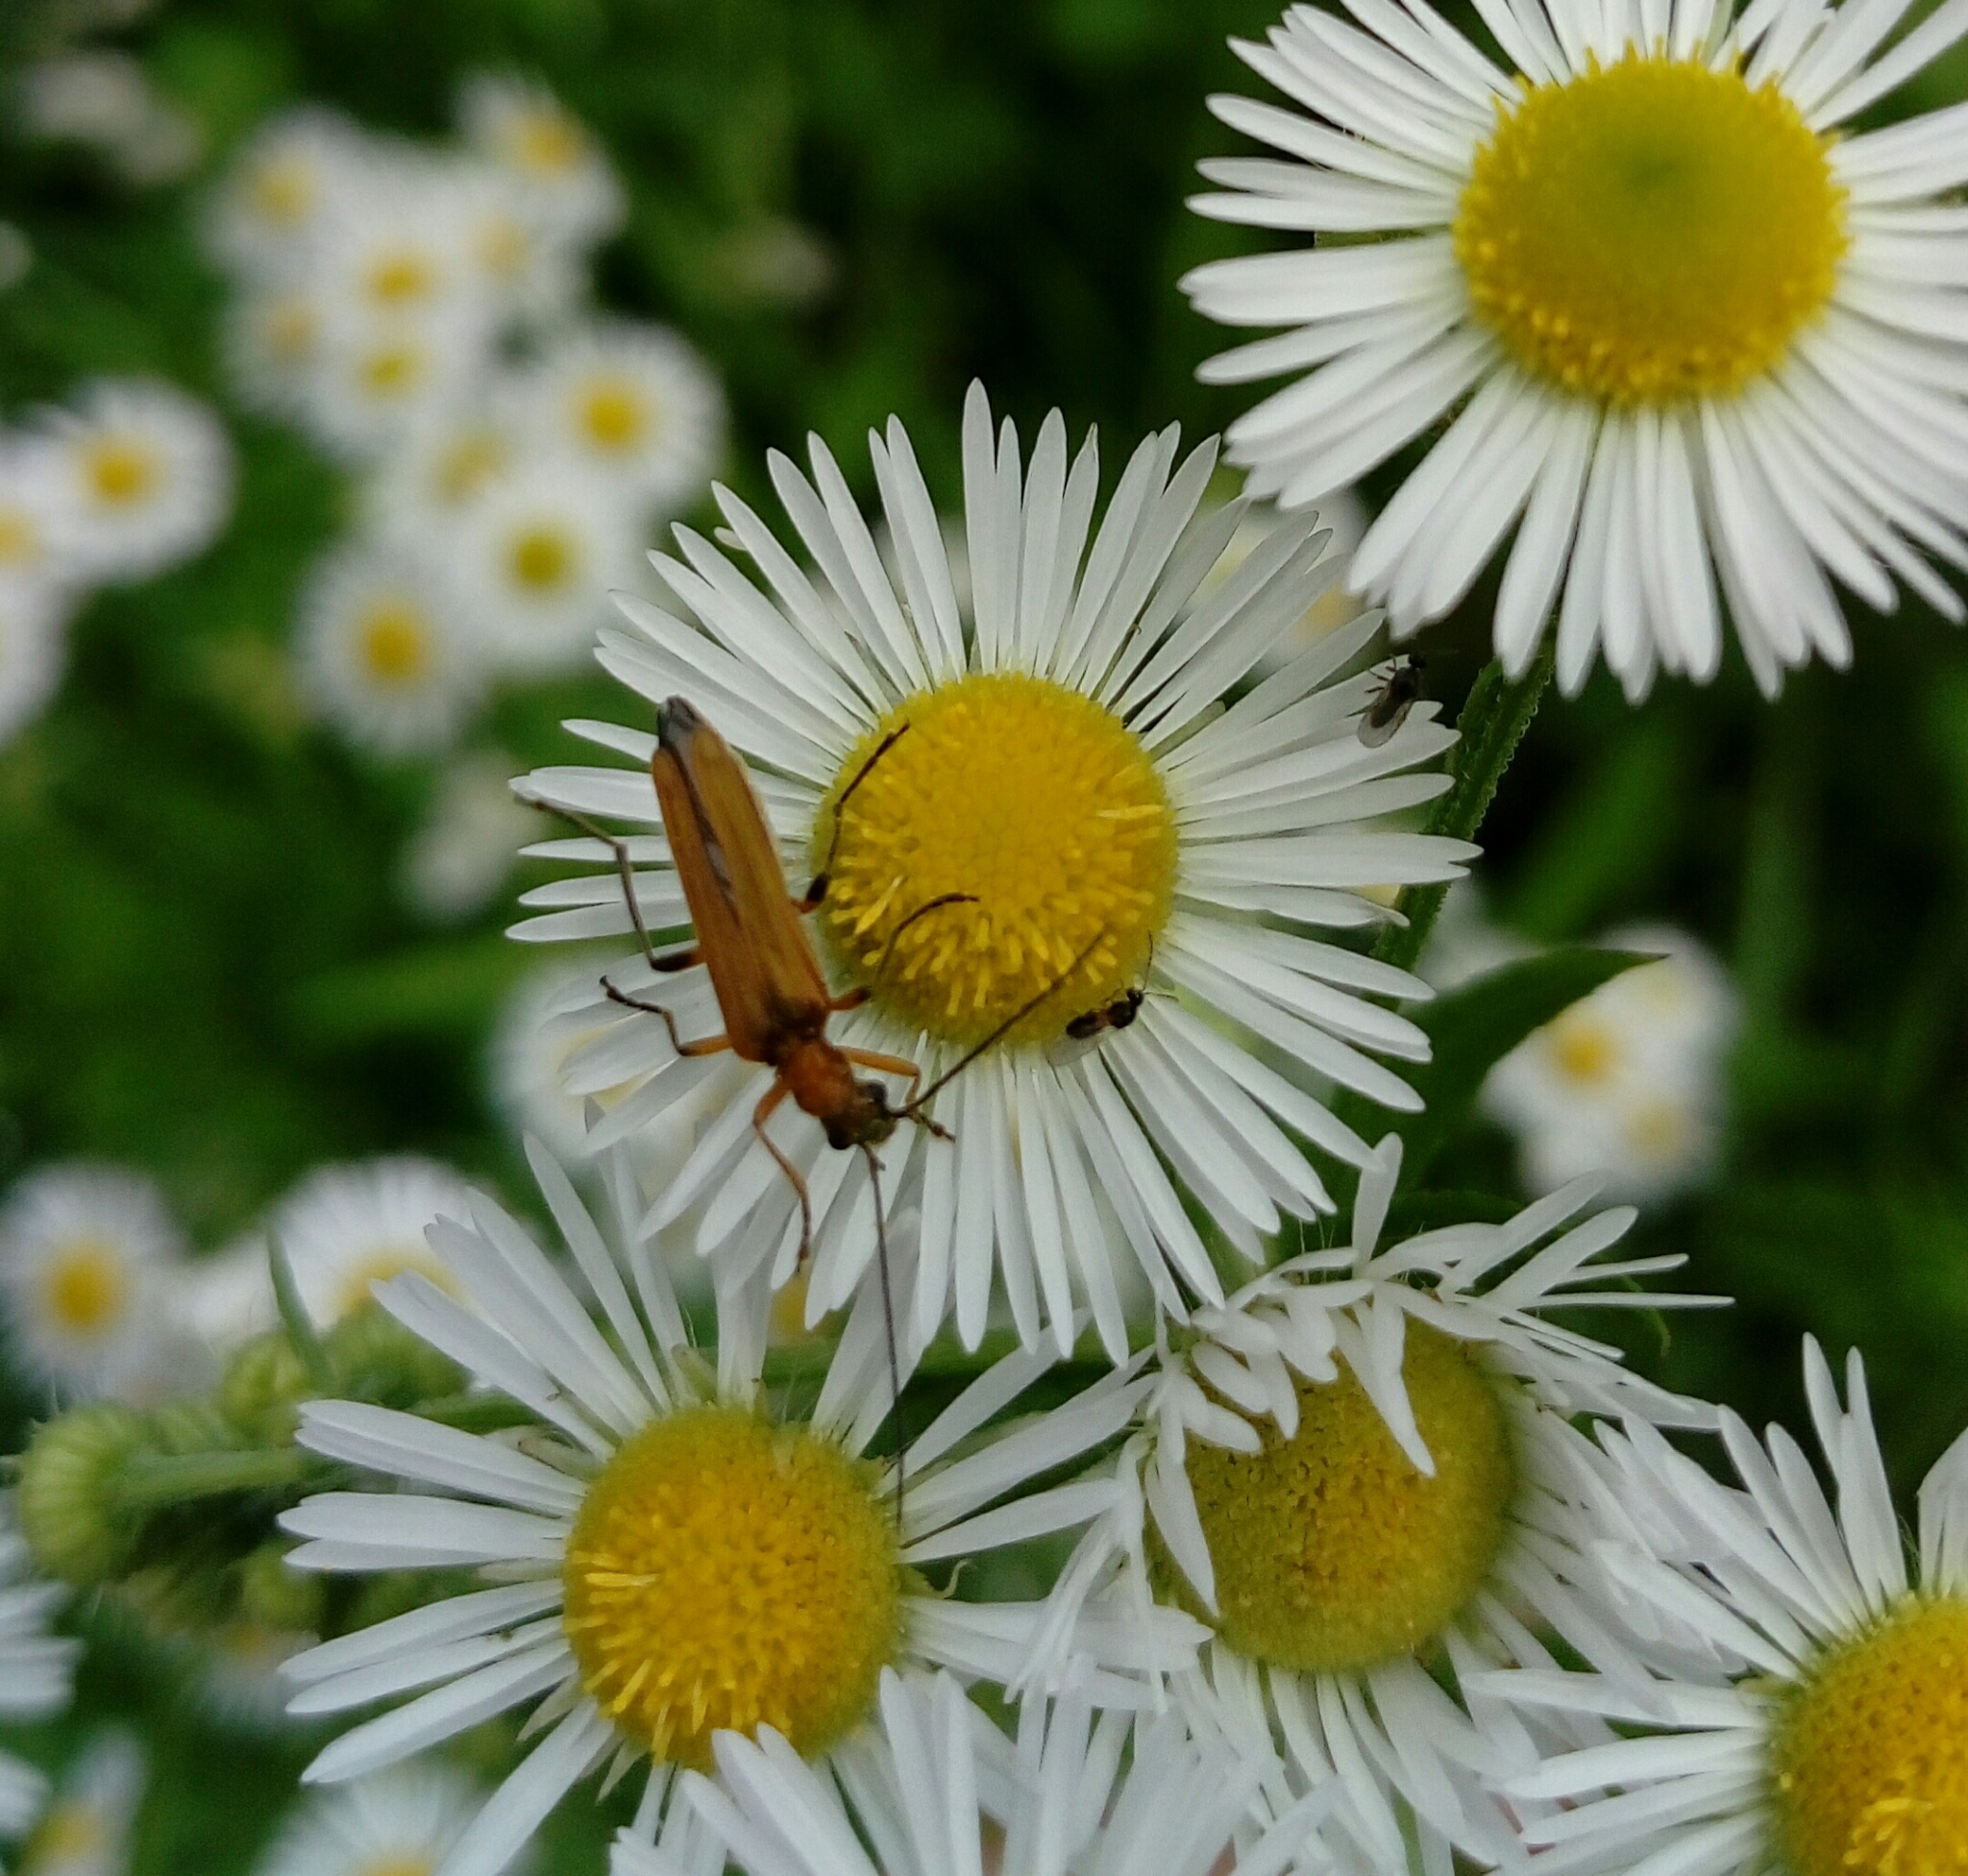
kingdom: Animalia
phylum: Arthropoda
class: Insecta
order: Coleoptera
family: Oedemeridae
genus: Oedemera
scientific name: Oedemera podagrariae
